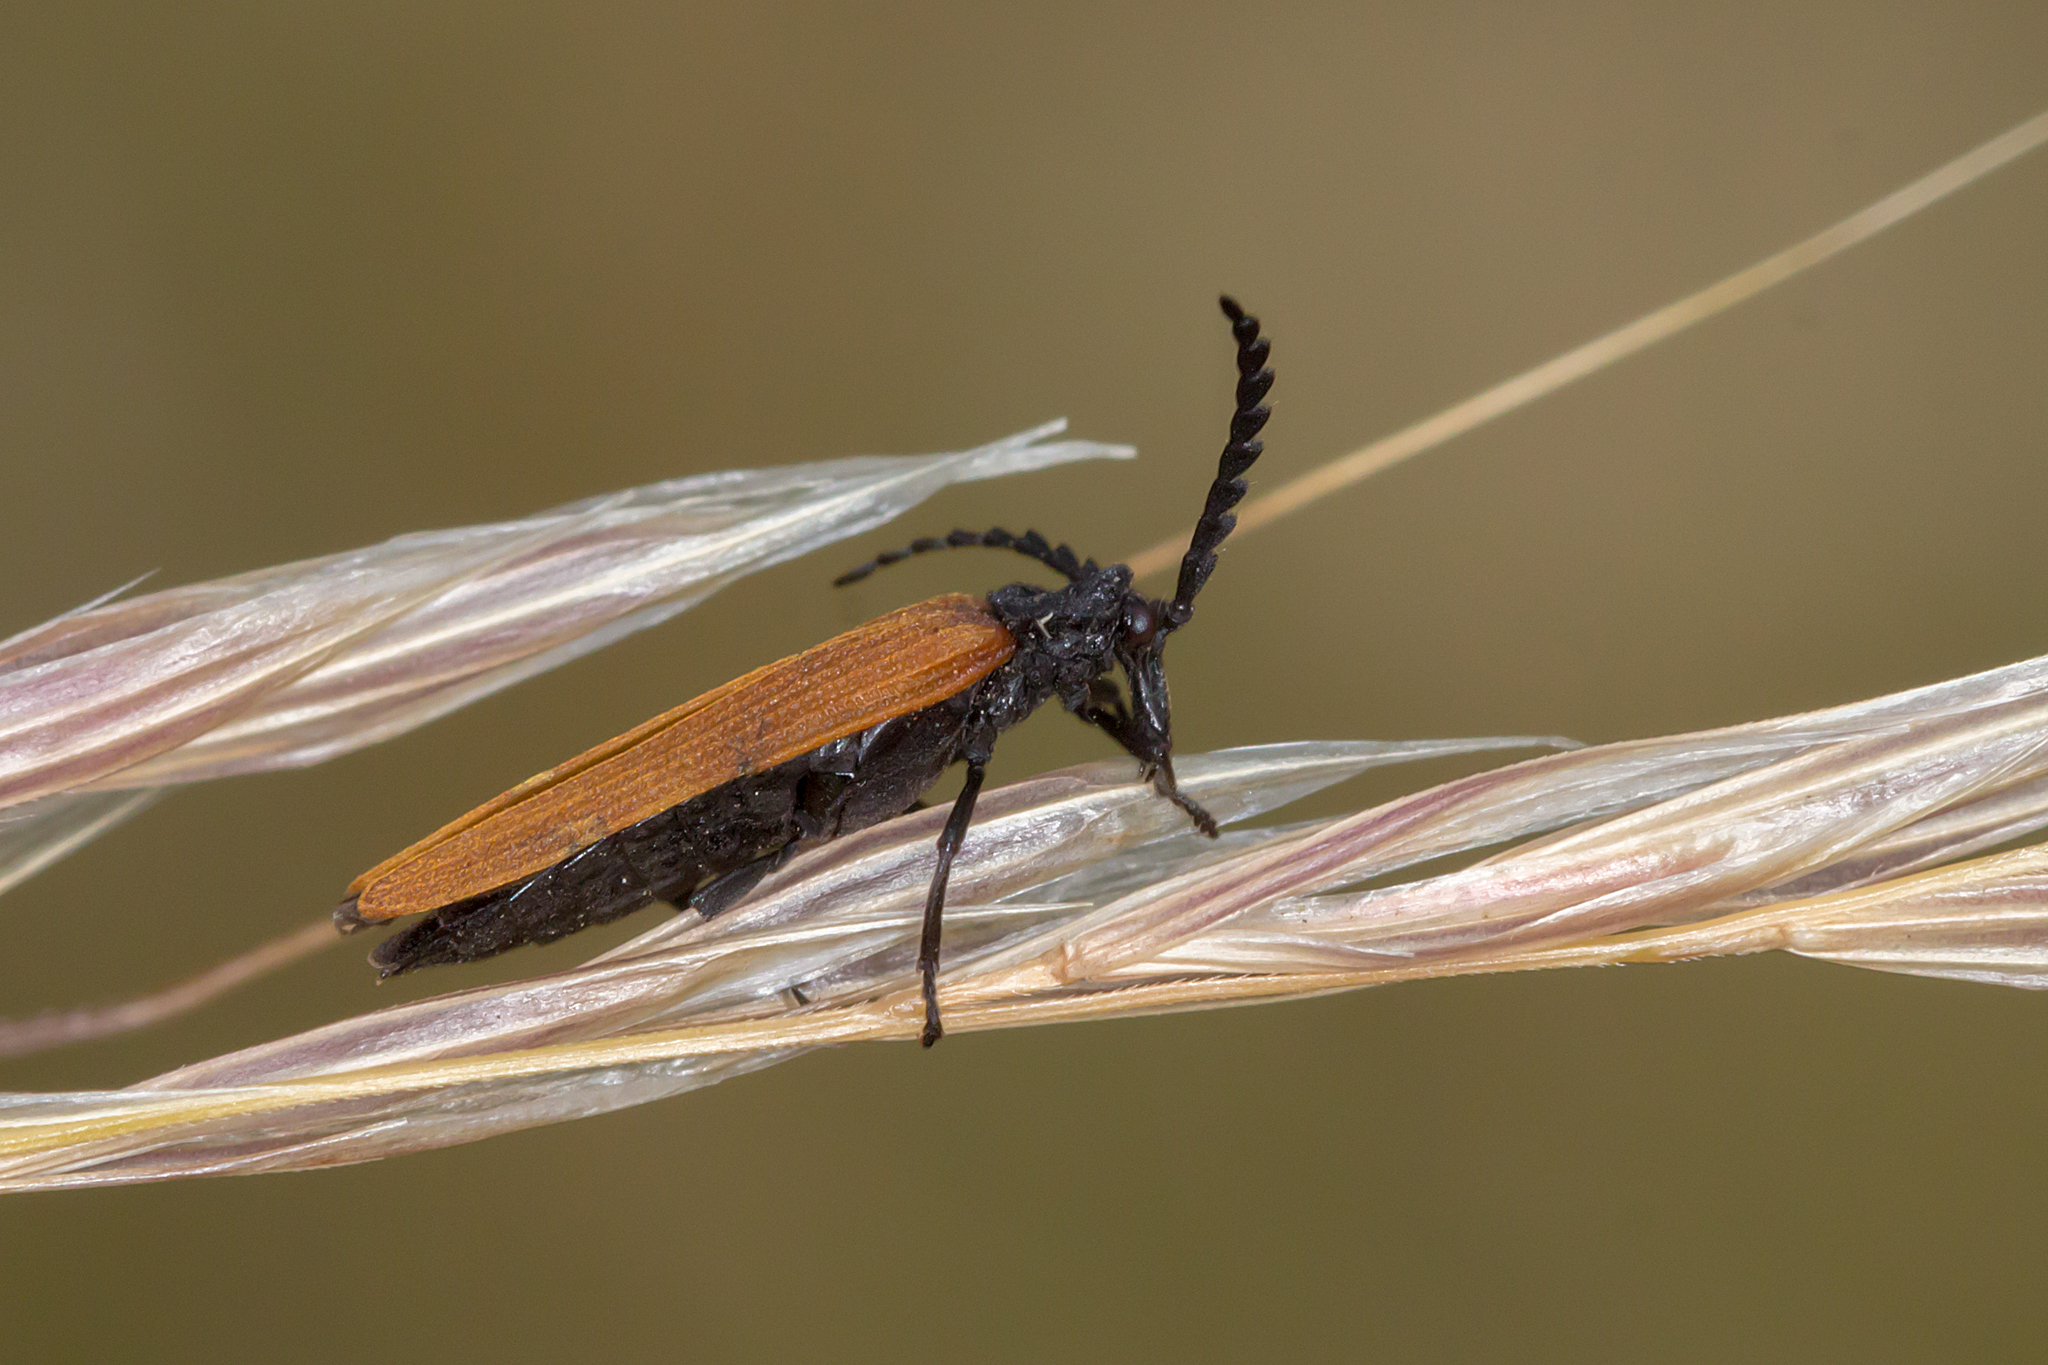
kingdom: Animalia
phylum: Arthropoda
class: Insecta
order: Coleoptera
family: Lycidae
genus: Porrostoma
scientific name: Porrostoma rhipidium
